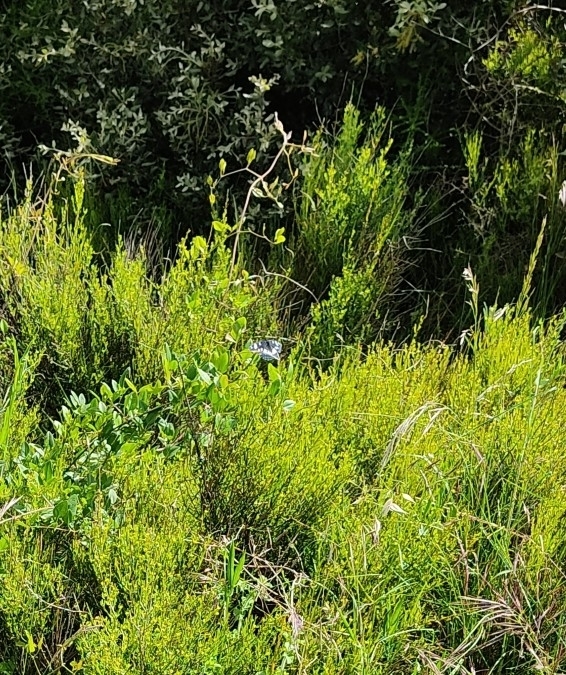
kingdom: Animalia
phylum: Arthropoda
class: Insecta
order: Lepidoptera
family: Nymphalidae
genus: Limenitis
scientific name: Limenitis reducta
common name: Southern white admiral
